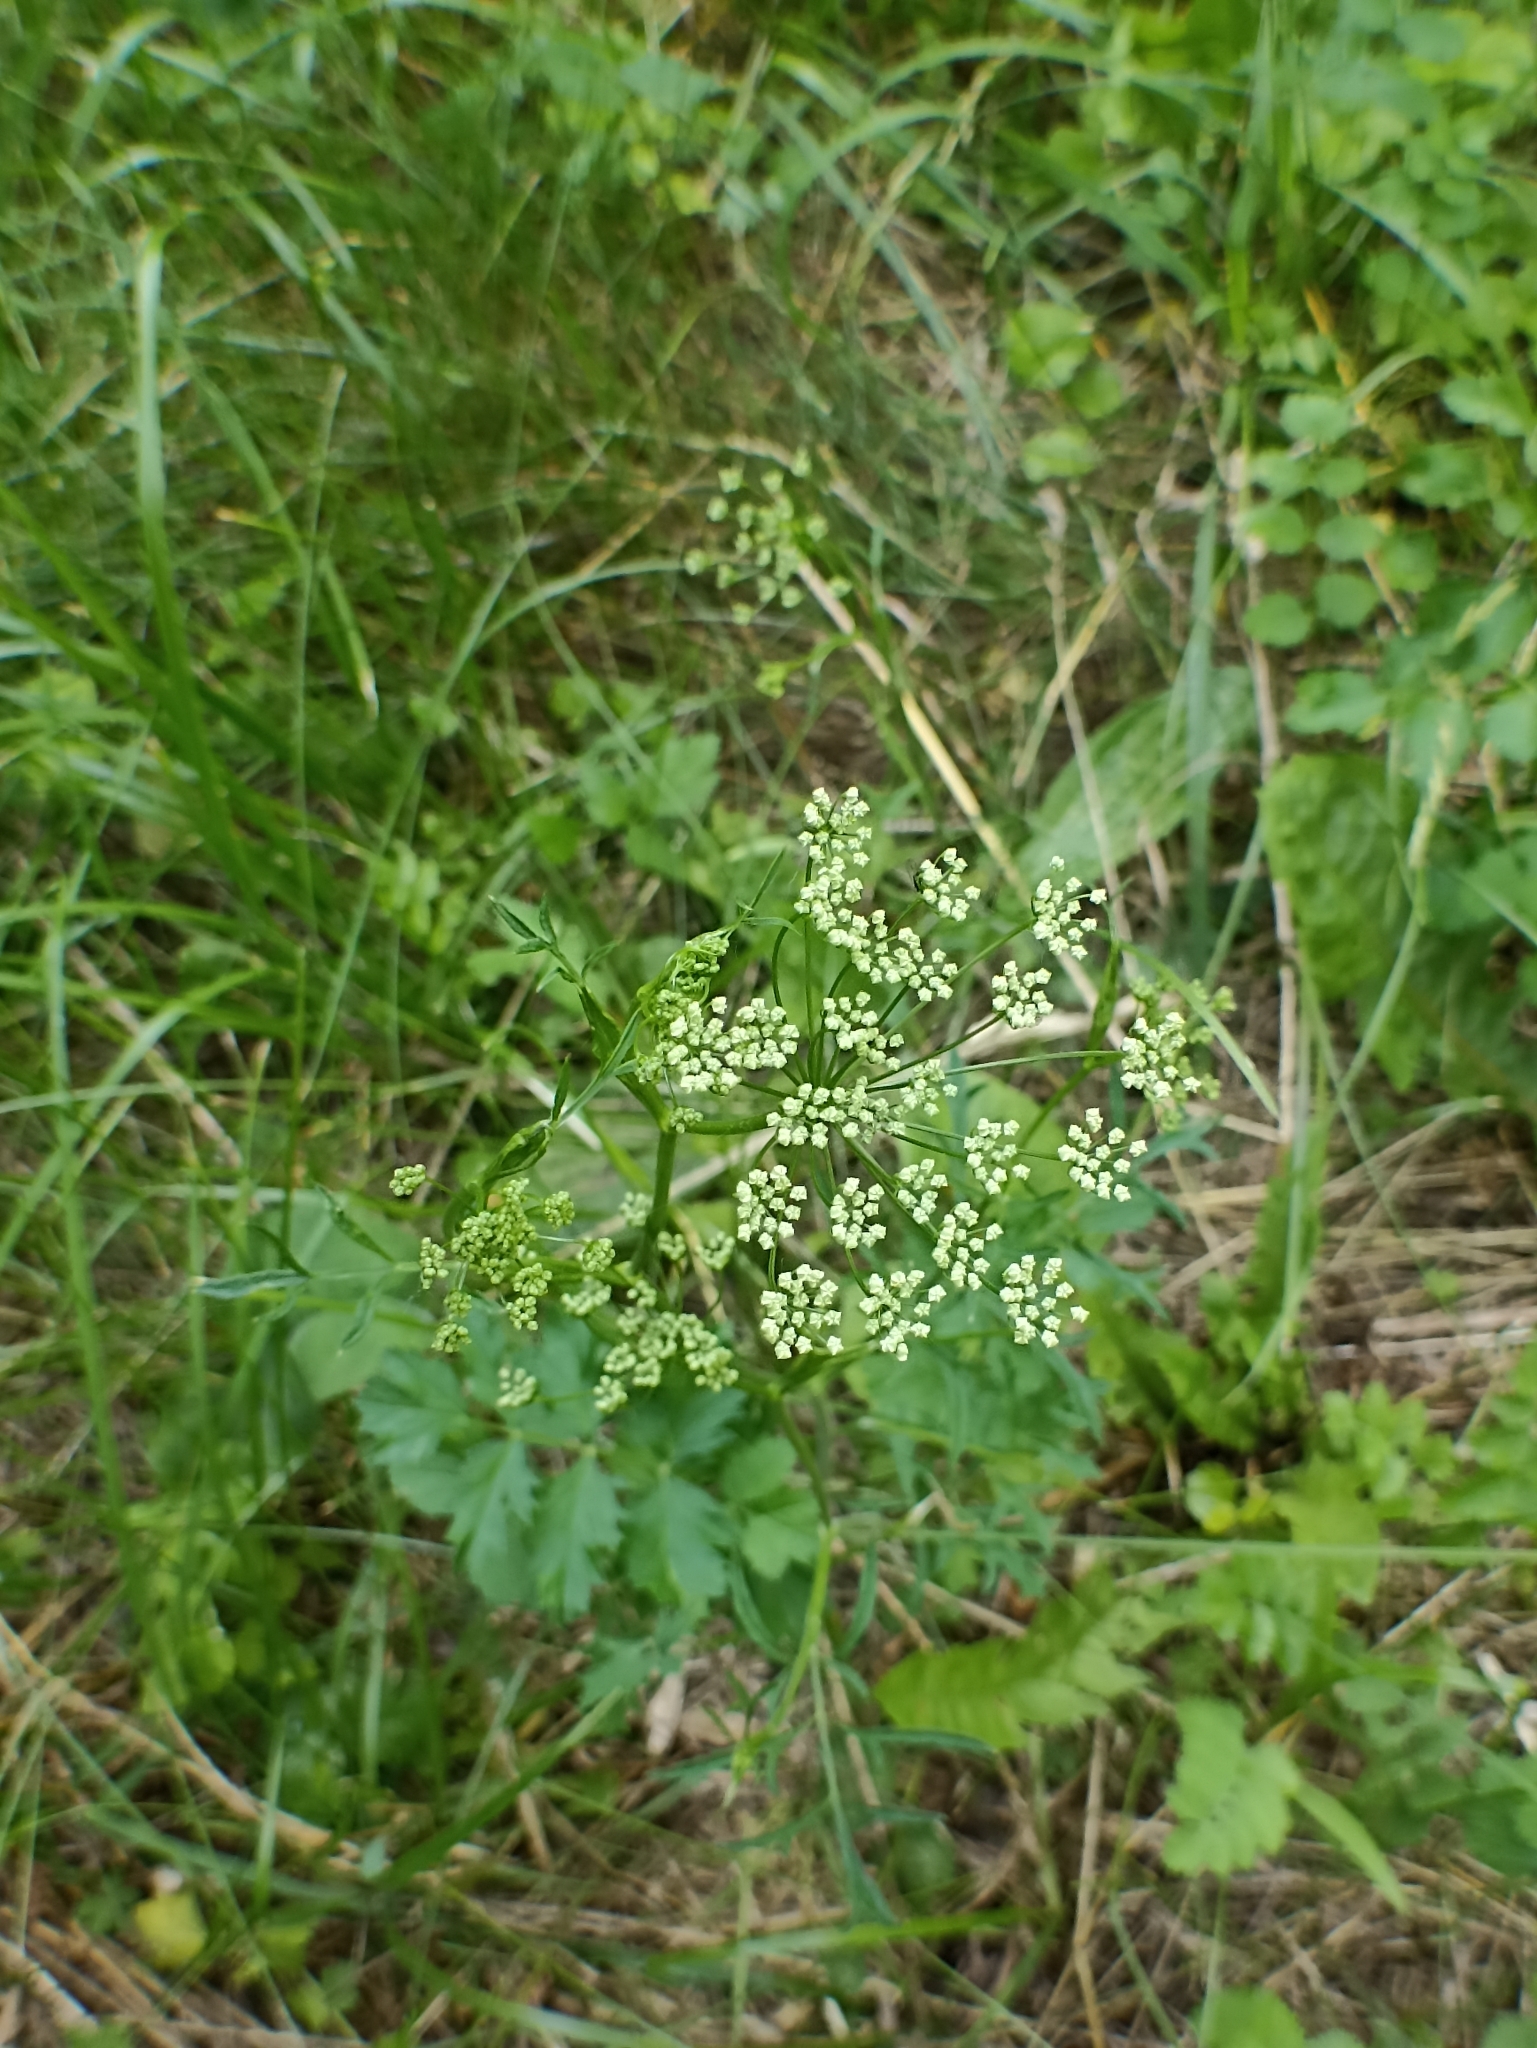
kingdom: Plantae
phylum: Tracheophyta
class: Magnoliopsida
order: Apiales
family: Apiaceae
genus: Pimpinella
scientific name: Pimpinella saxifraga
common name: Burnet-saxifrage
